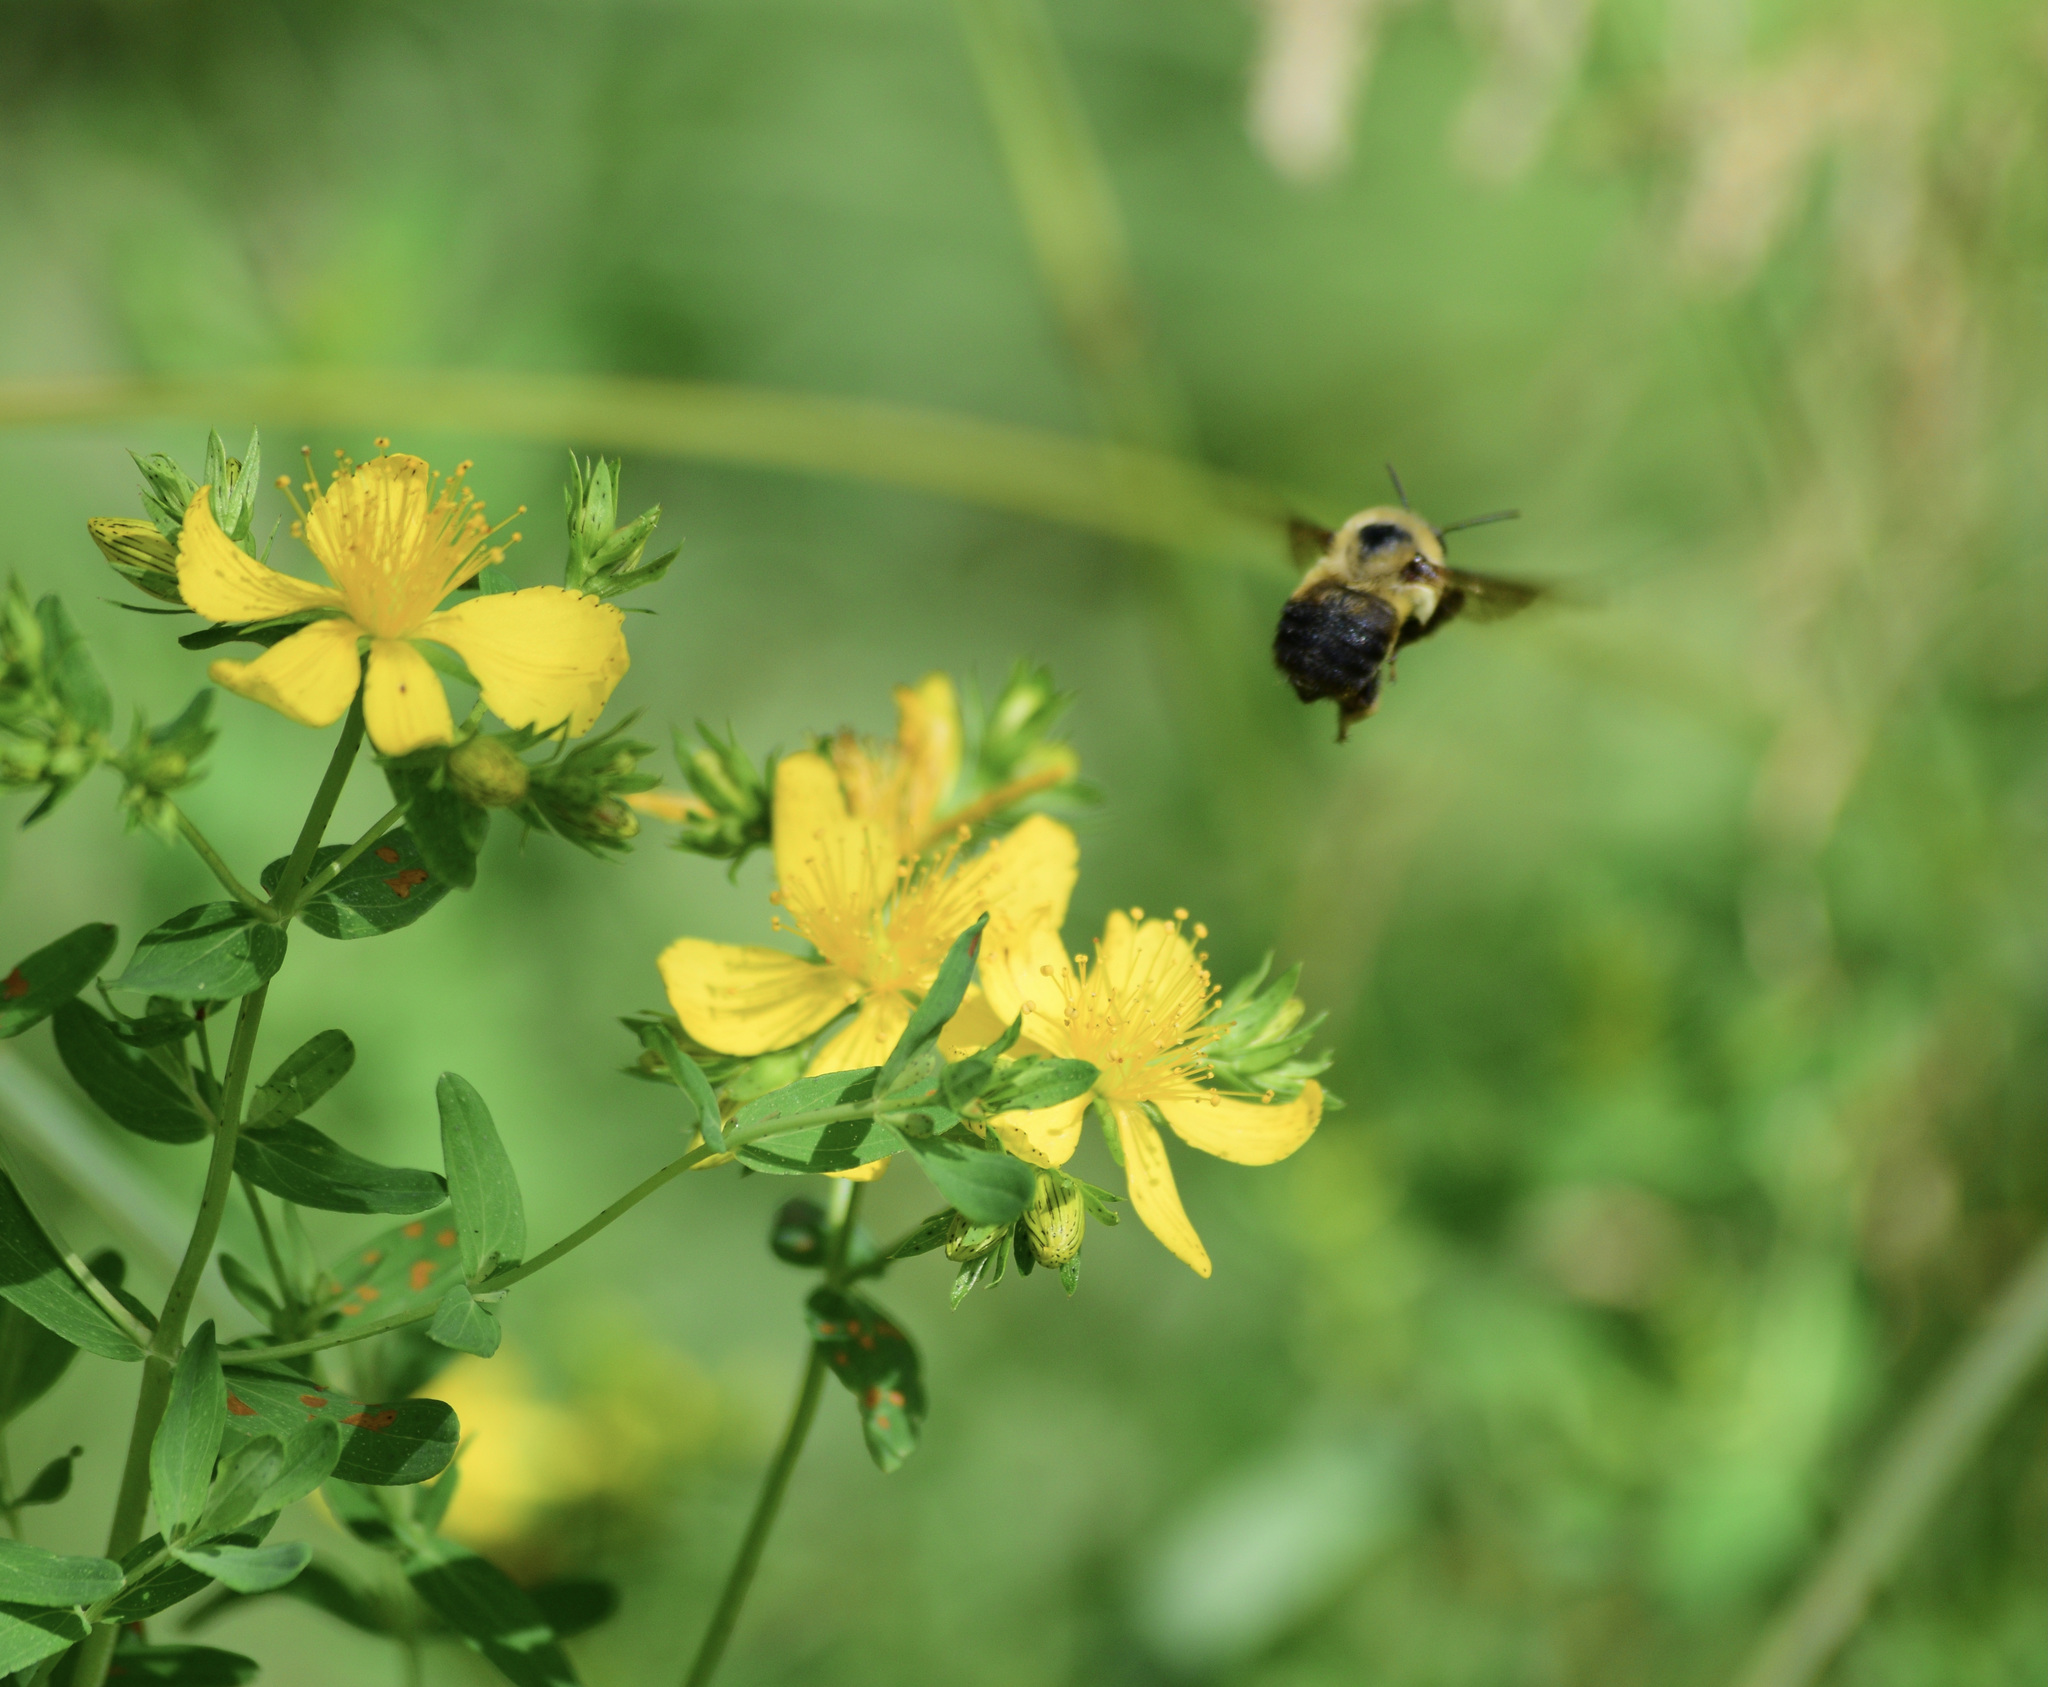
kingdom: Animalia
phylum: Arthropoda
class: Insecta
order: Hymenoptera
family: Apidae
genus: Bombus
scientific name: Bombus griseocollis
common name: Brown-belted bumble bee
